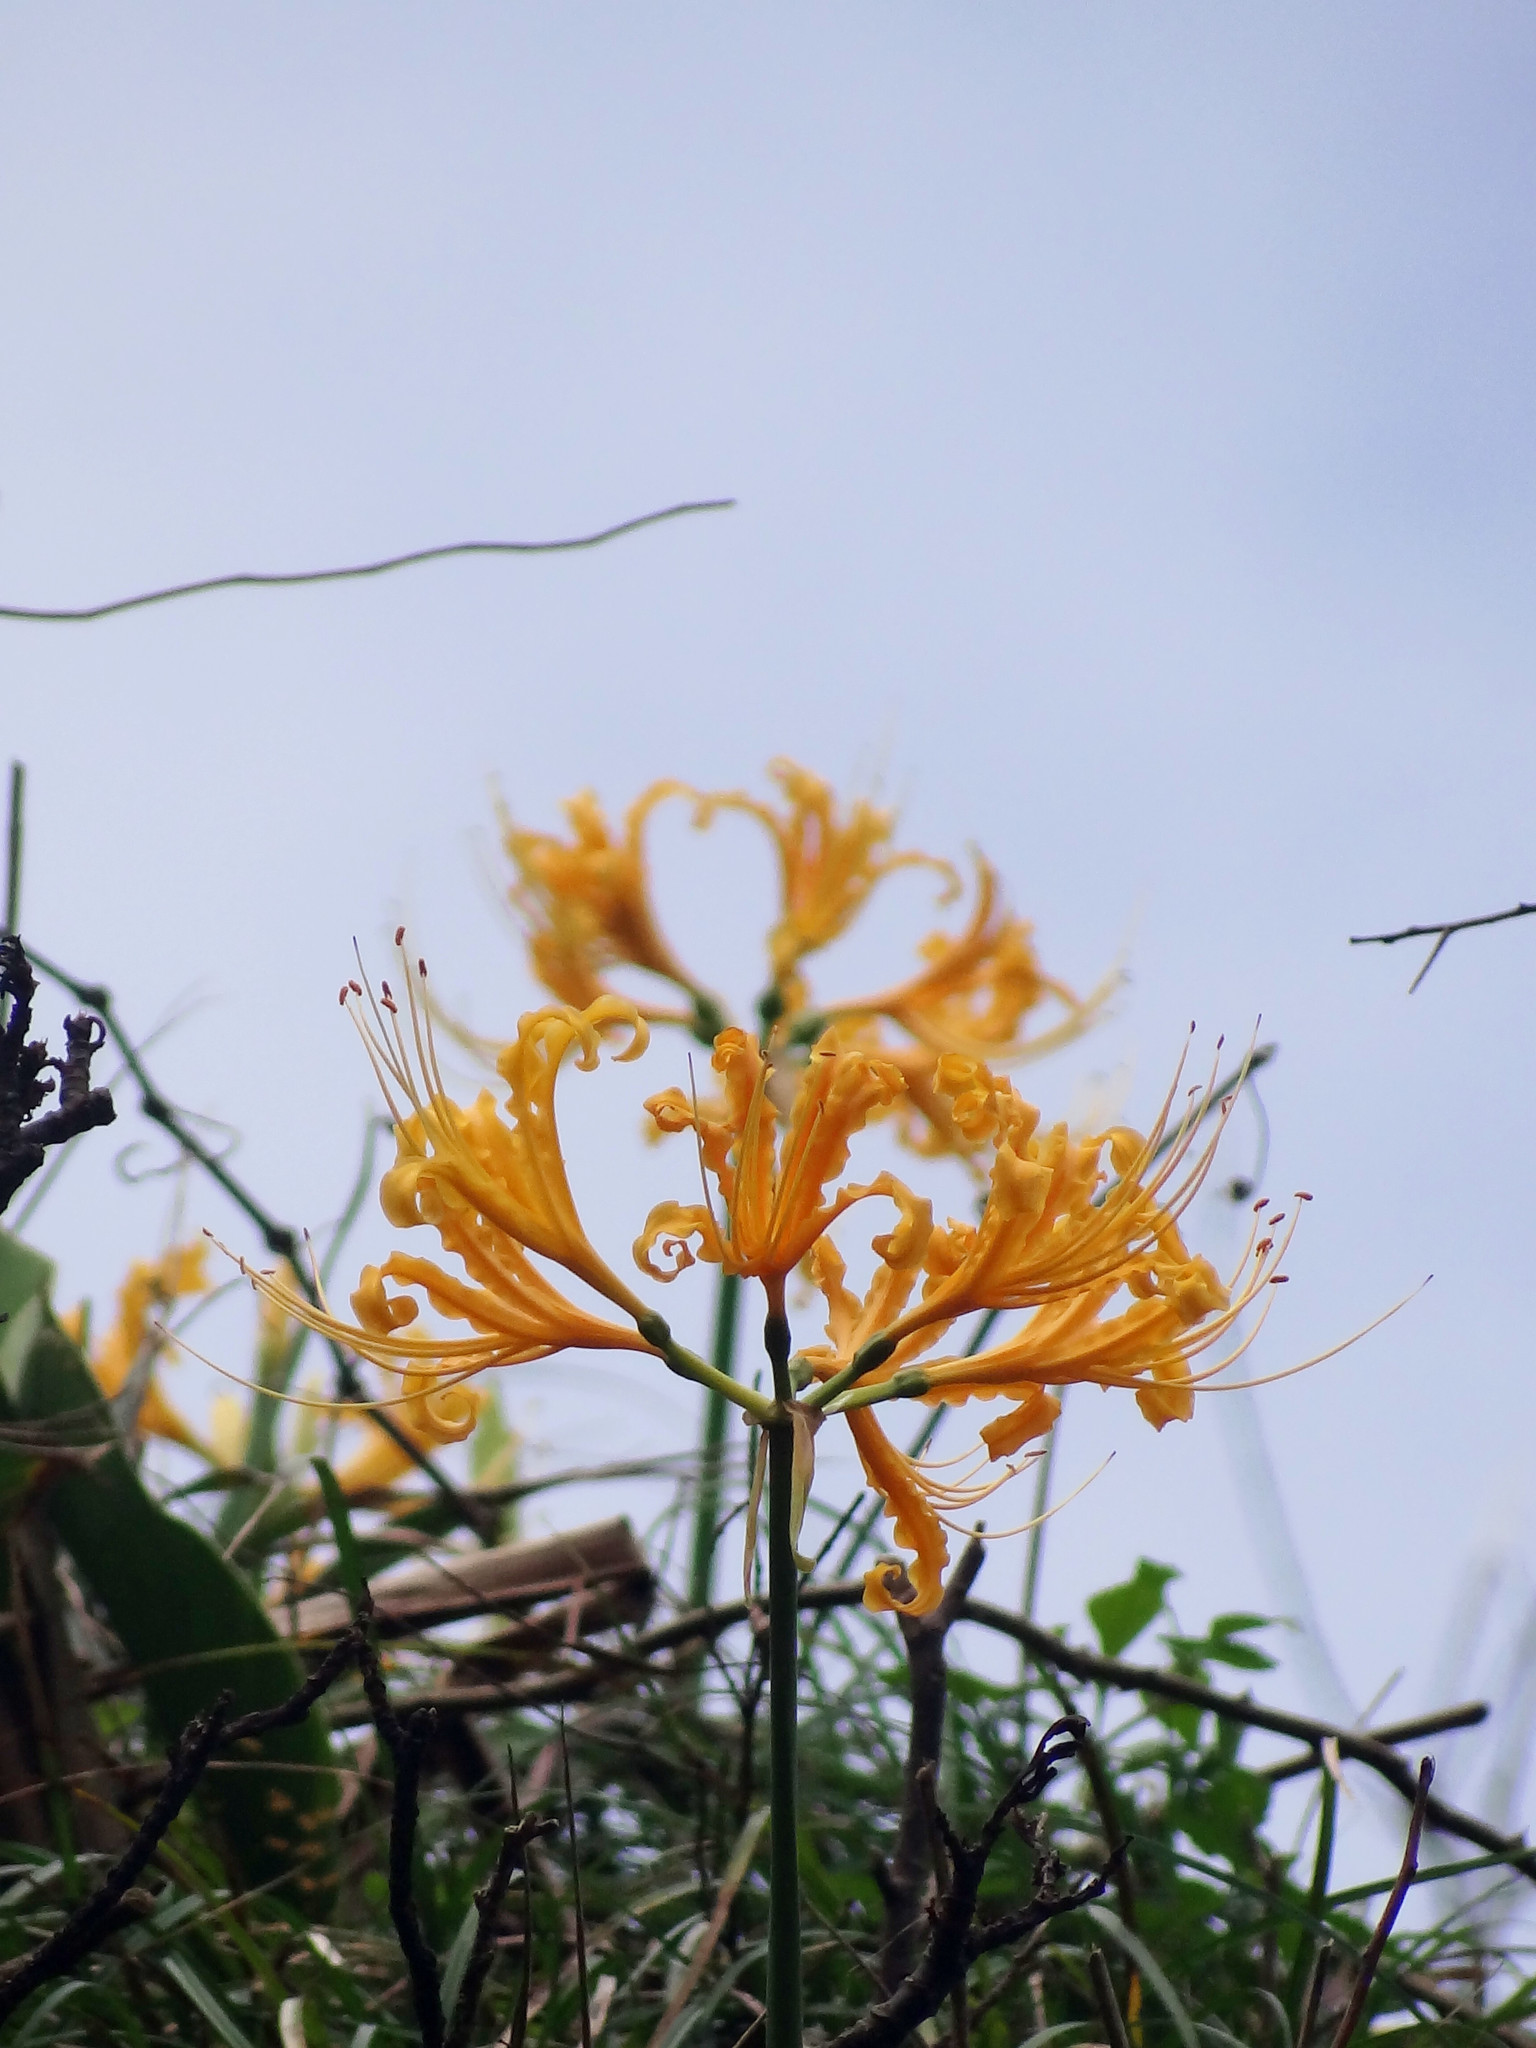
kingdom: Plantae
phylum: Tracheophyta
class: Liliopsida
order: Asparagales
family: Amaryllidaceae
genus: Lycoris
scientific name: Lycoris aurea
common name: Golden hurricane-lily
